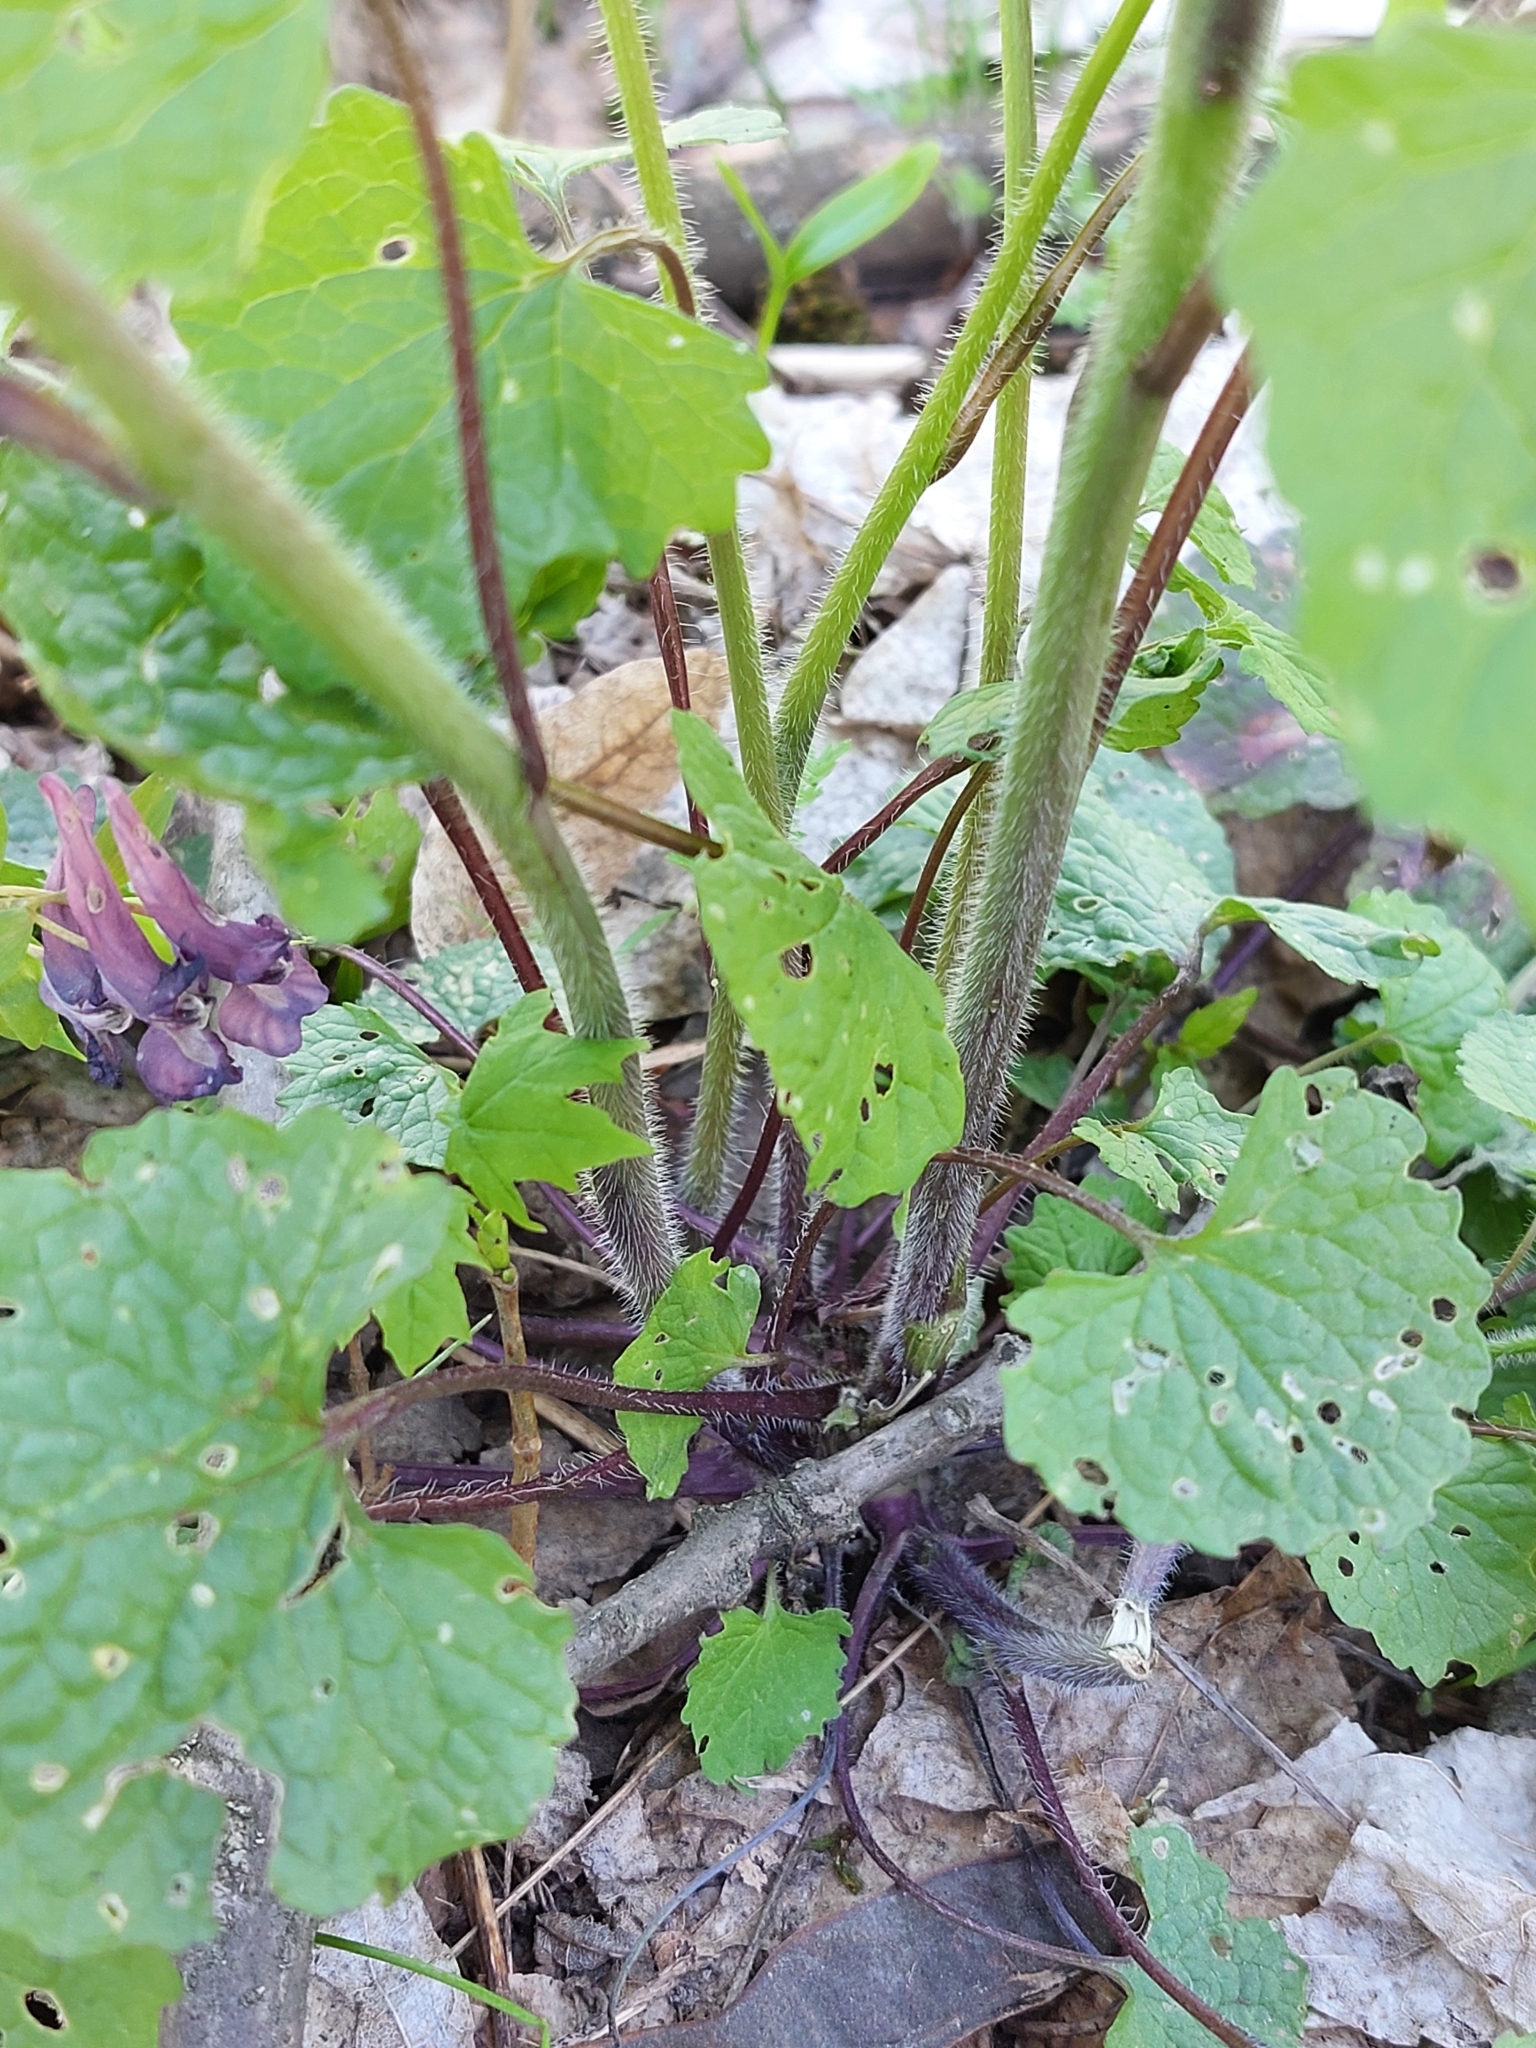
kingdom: Plantae
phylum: Tracheophyta
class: Magnoliopsida
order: Brassicales
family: Brassicaceae
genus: Alliaria
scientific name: Alliaria petiolata
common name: Garlic mustard
